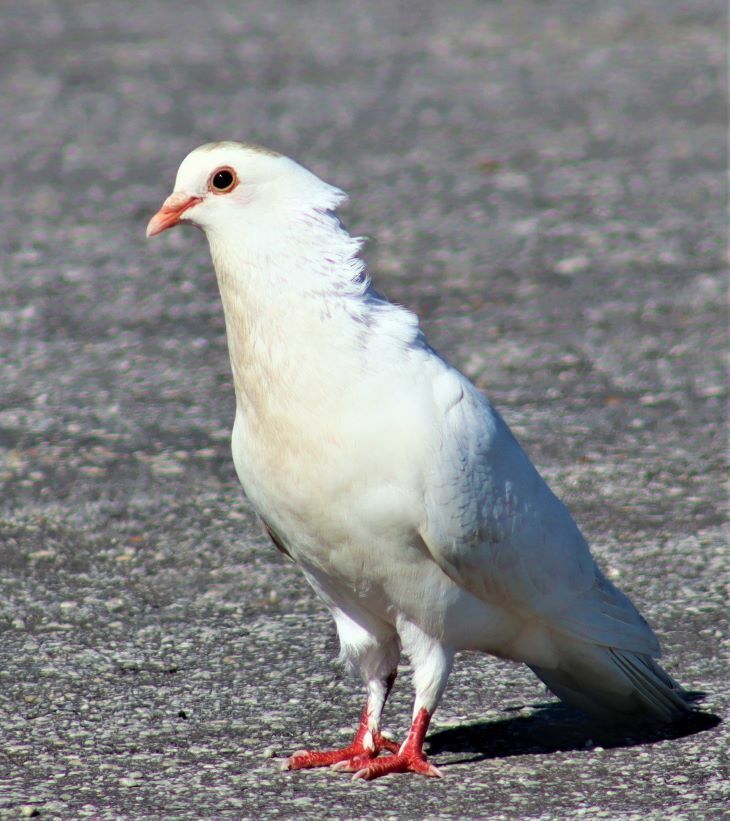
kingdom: Animalia
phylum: Chordata
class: Aves
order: Columbiformes
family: Columbidae
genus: Columba
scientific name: Columba livia
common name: Rock pigeon
